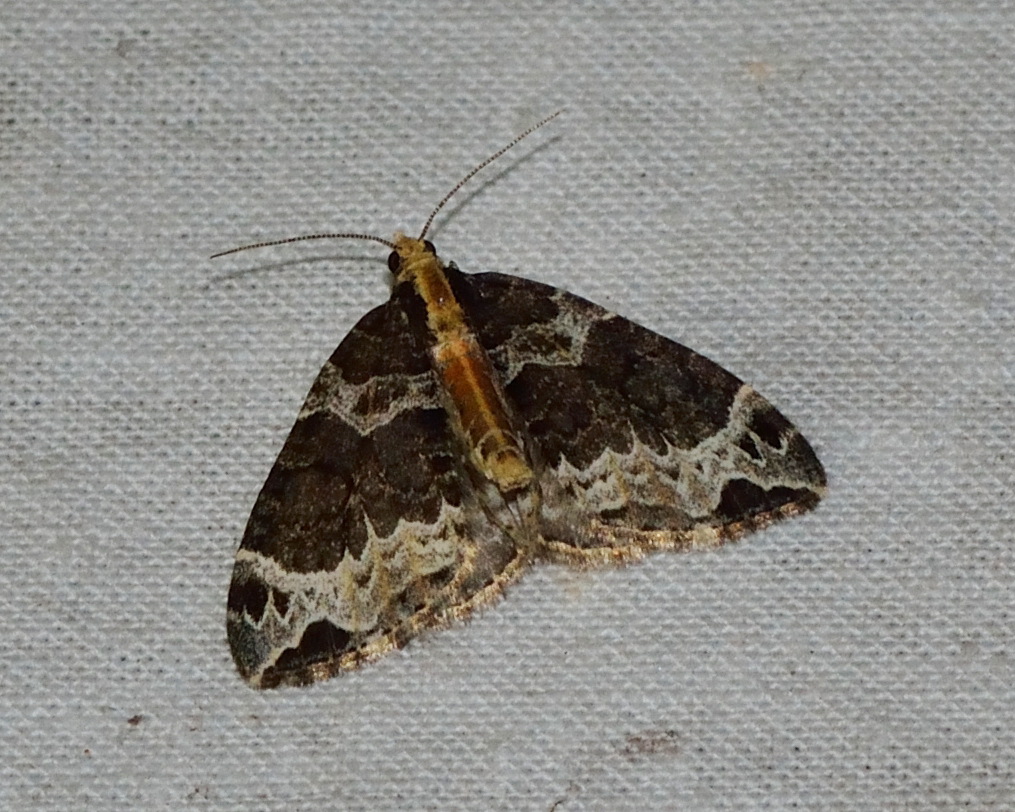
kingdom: Animalia
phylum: Arthropoda
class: Insecta
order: Lepidoptera
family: Geometridae
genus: Ecliptopera
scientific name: Ecliptopera capitata
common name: Yellow-headed phoenix
